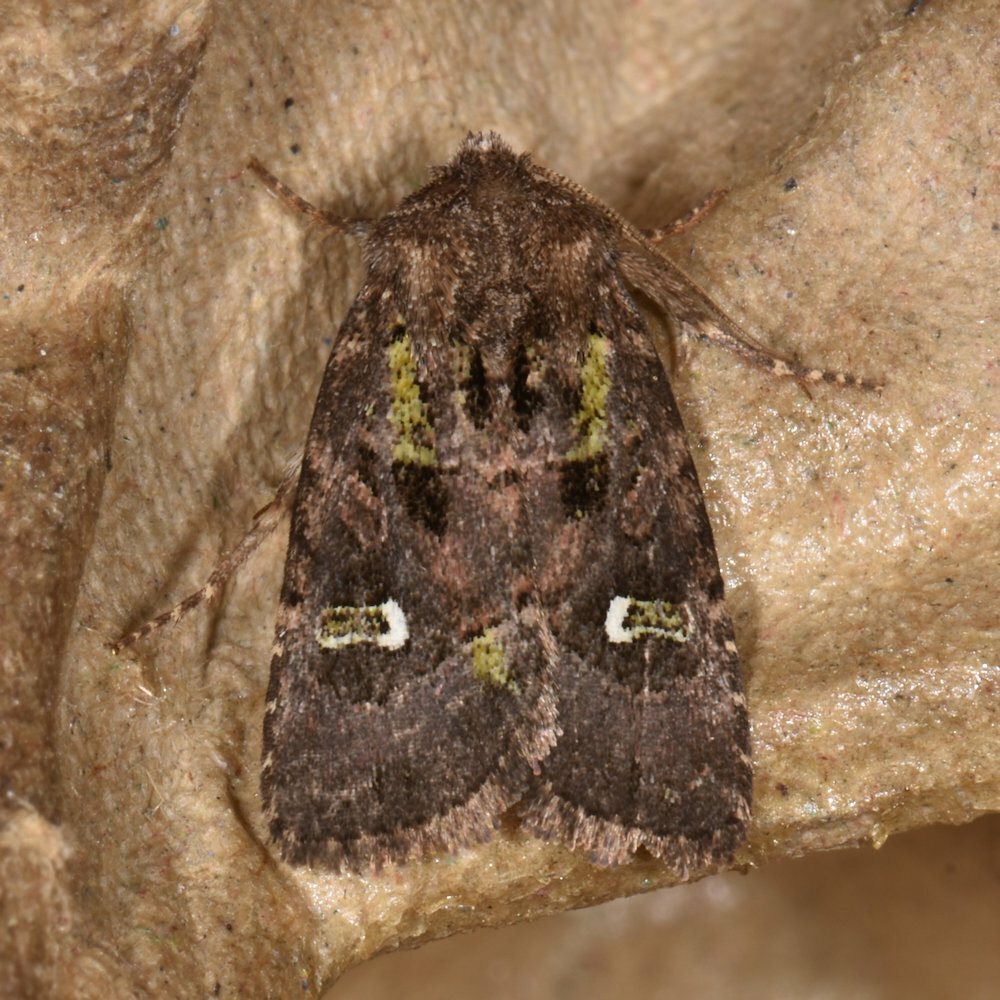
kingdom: Animalia
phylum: Arthropoda
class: Insecta
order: Lepidoptera
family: Noctuidae
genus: Lacinipolia
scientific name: Lacinipolia renigera
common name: Kidney-spotted minor
